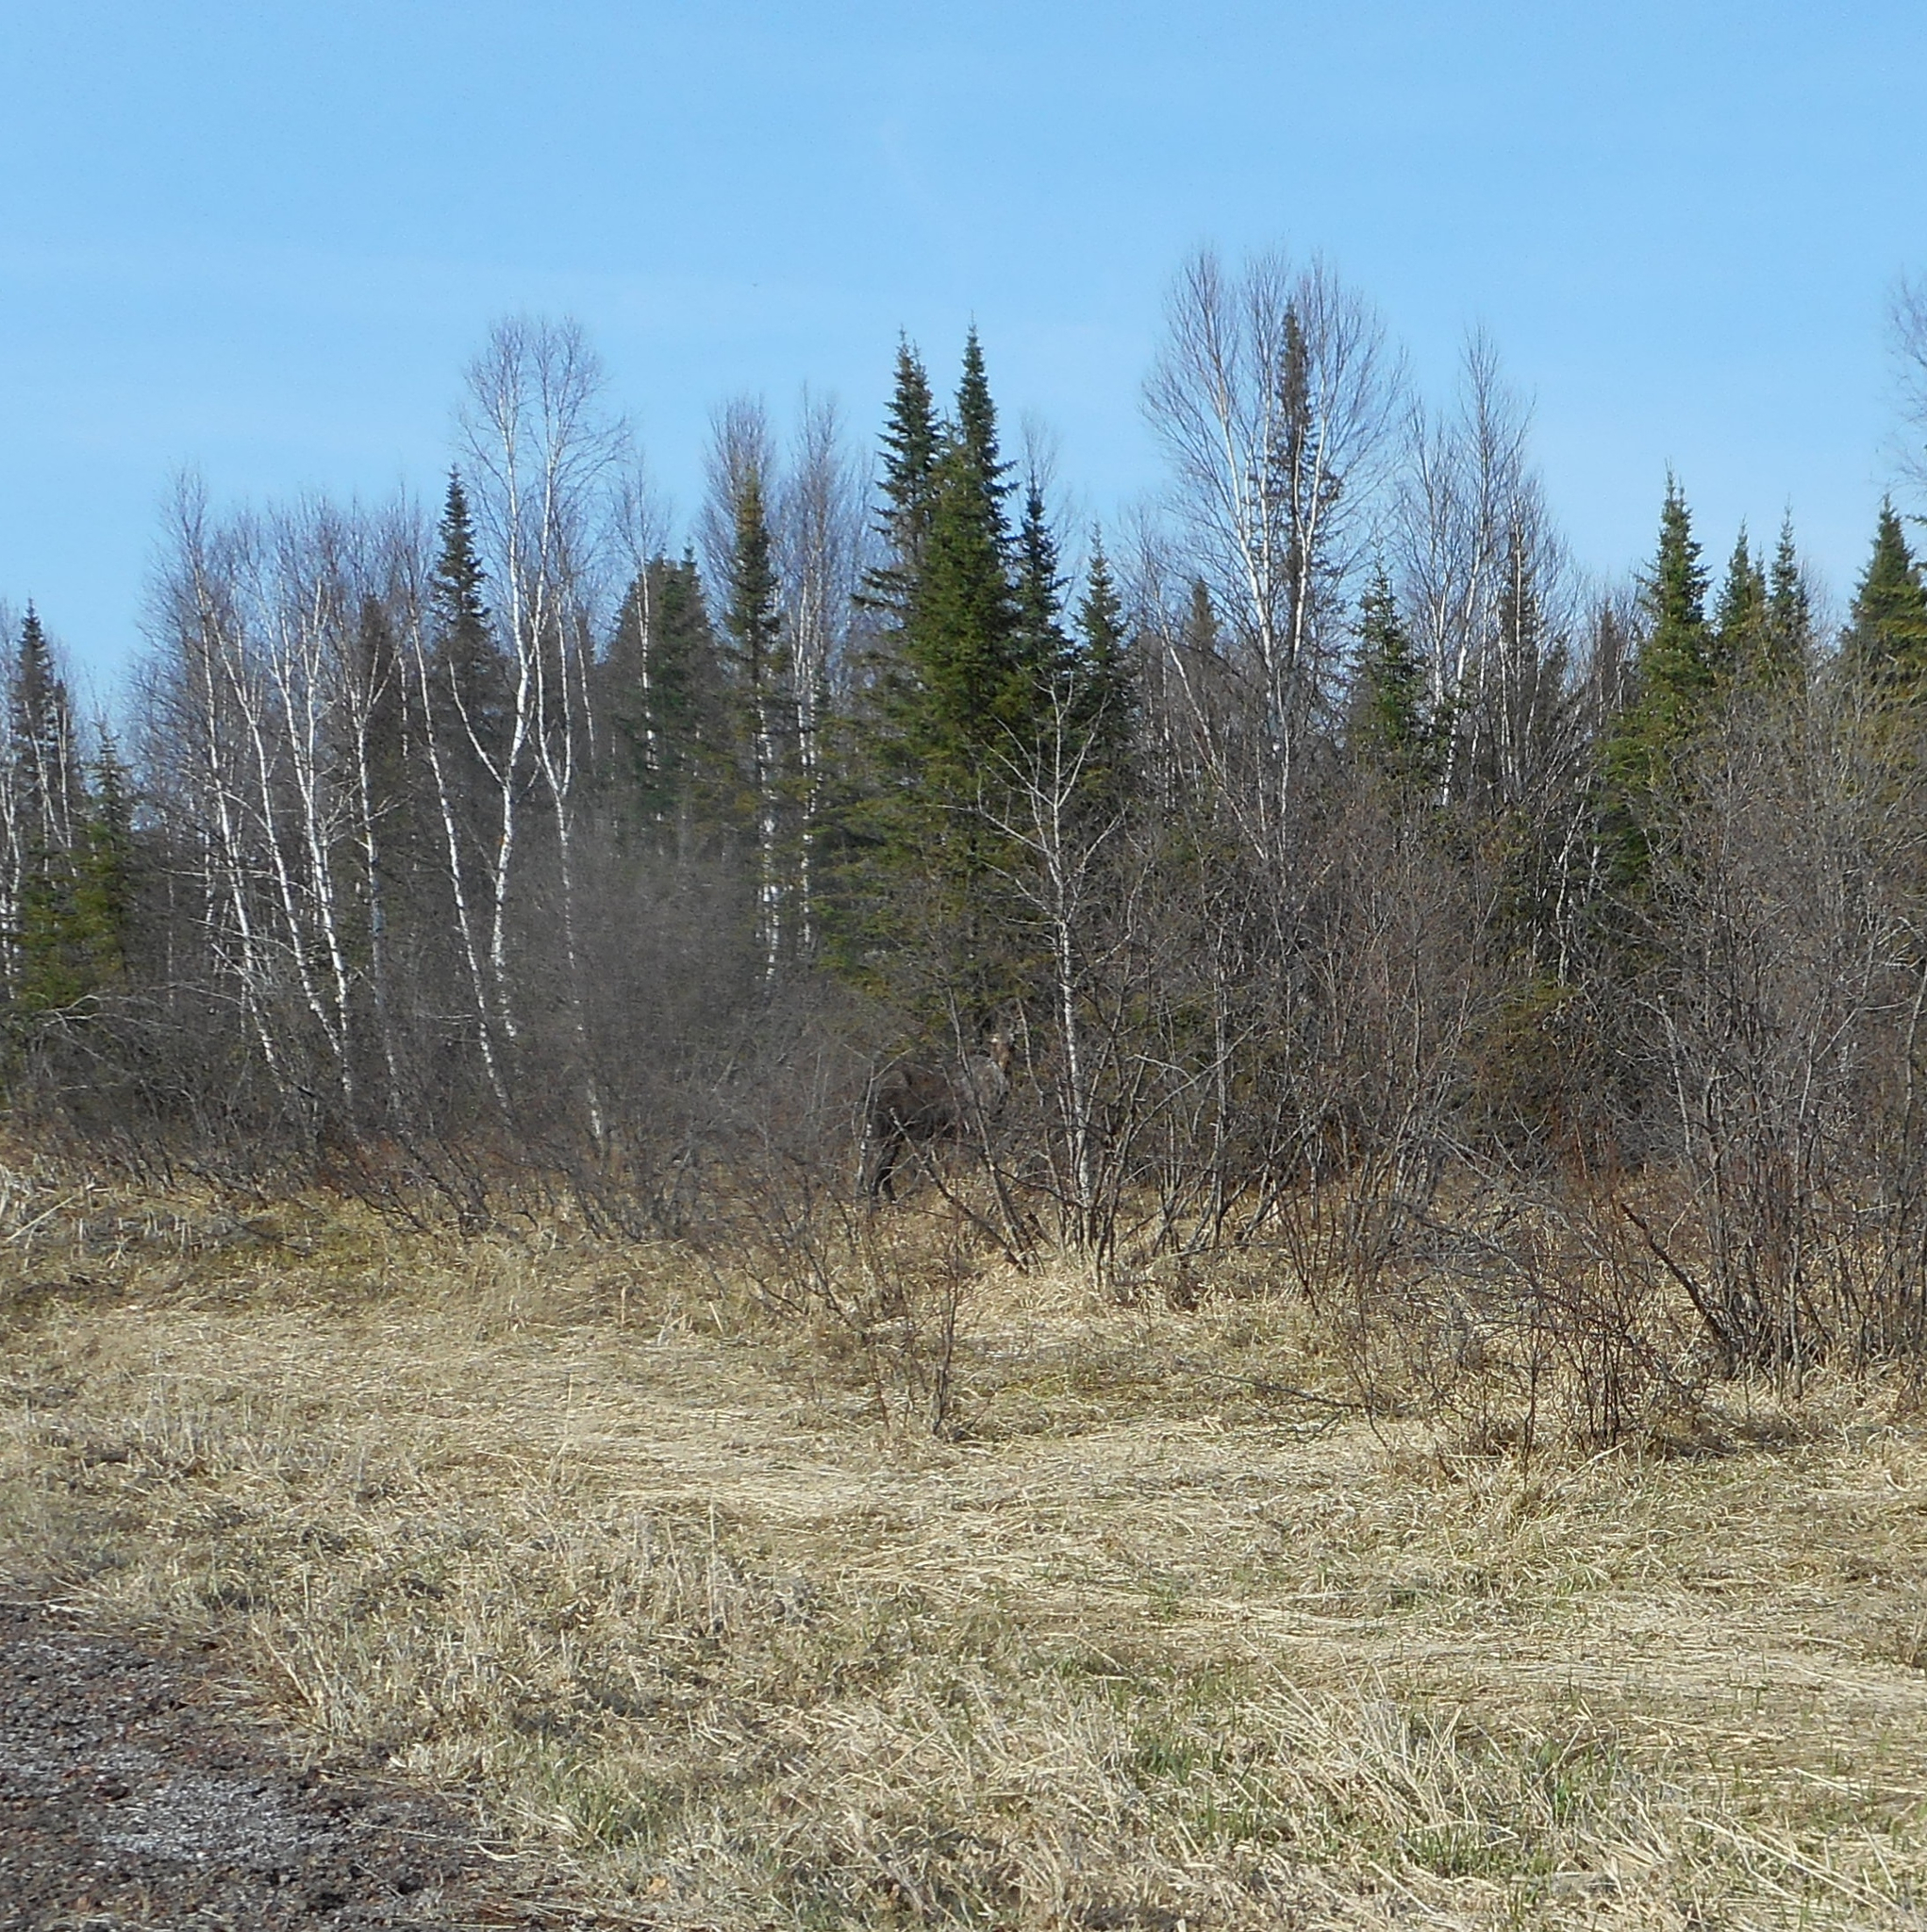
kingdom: Animalia
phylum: Chordata
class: Mammalia
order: Artiodactyla
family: Cervidae
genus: Alces
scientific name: Alces alces
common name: Moose
